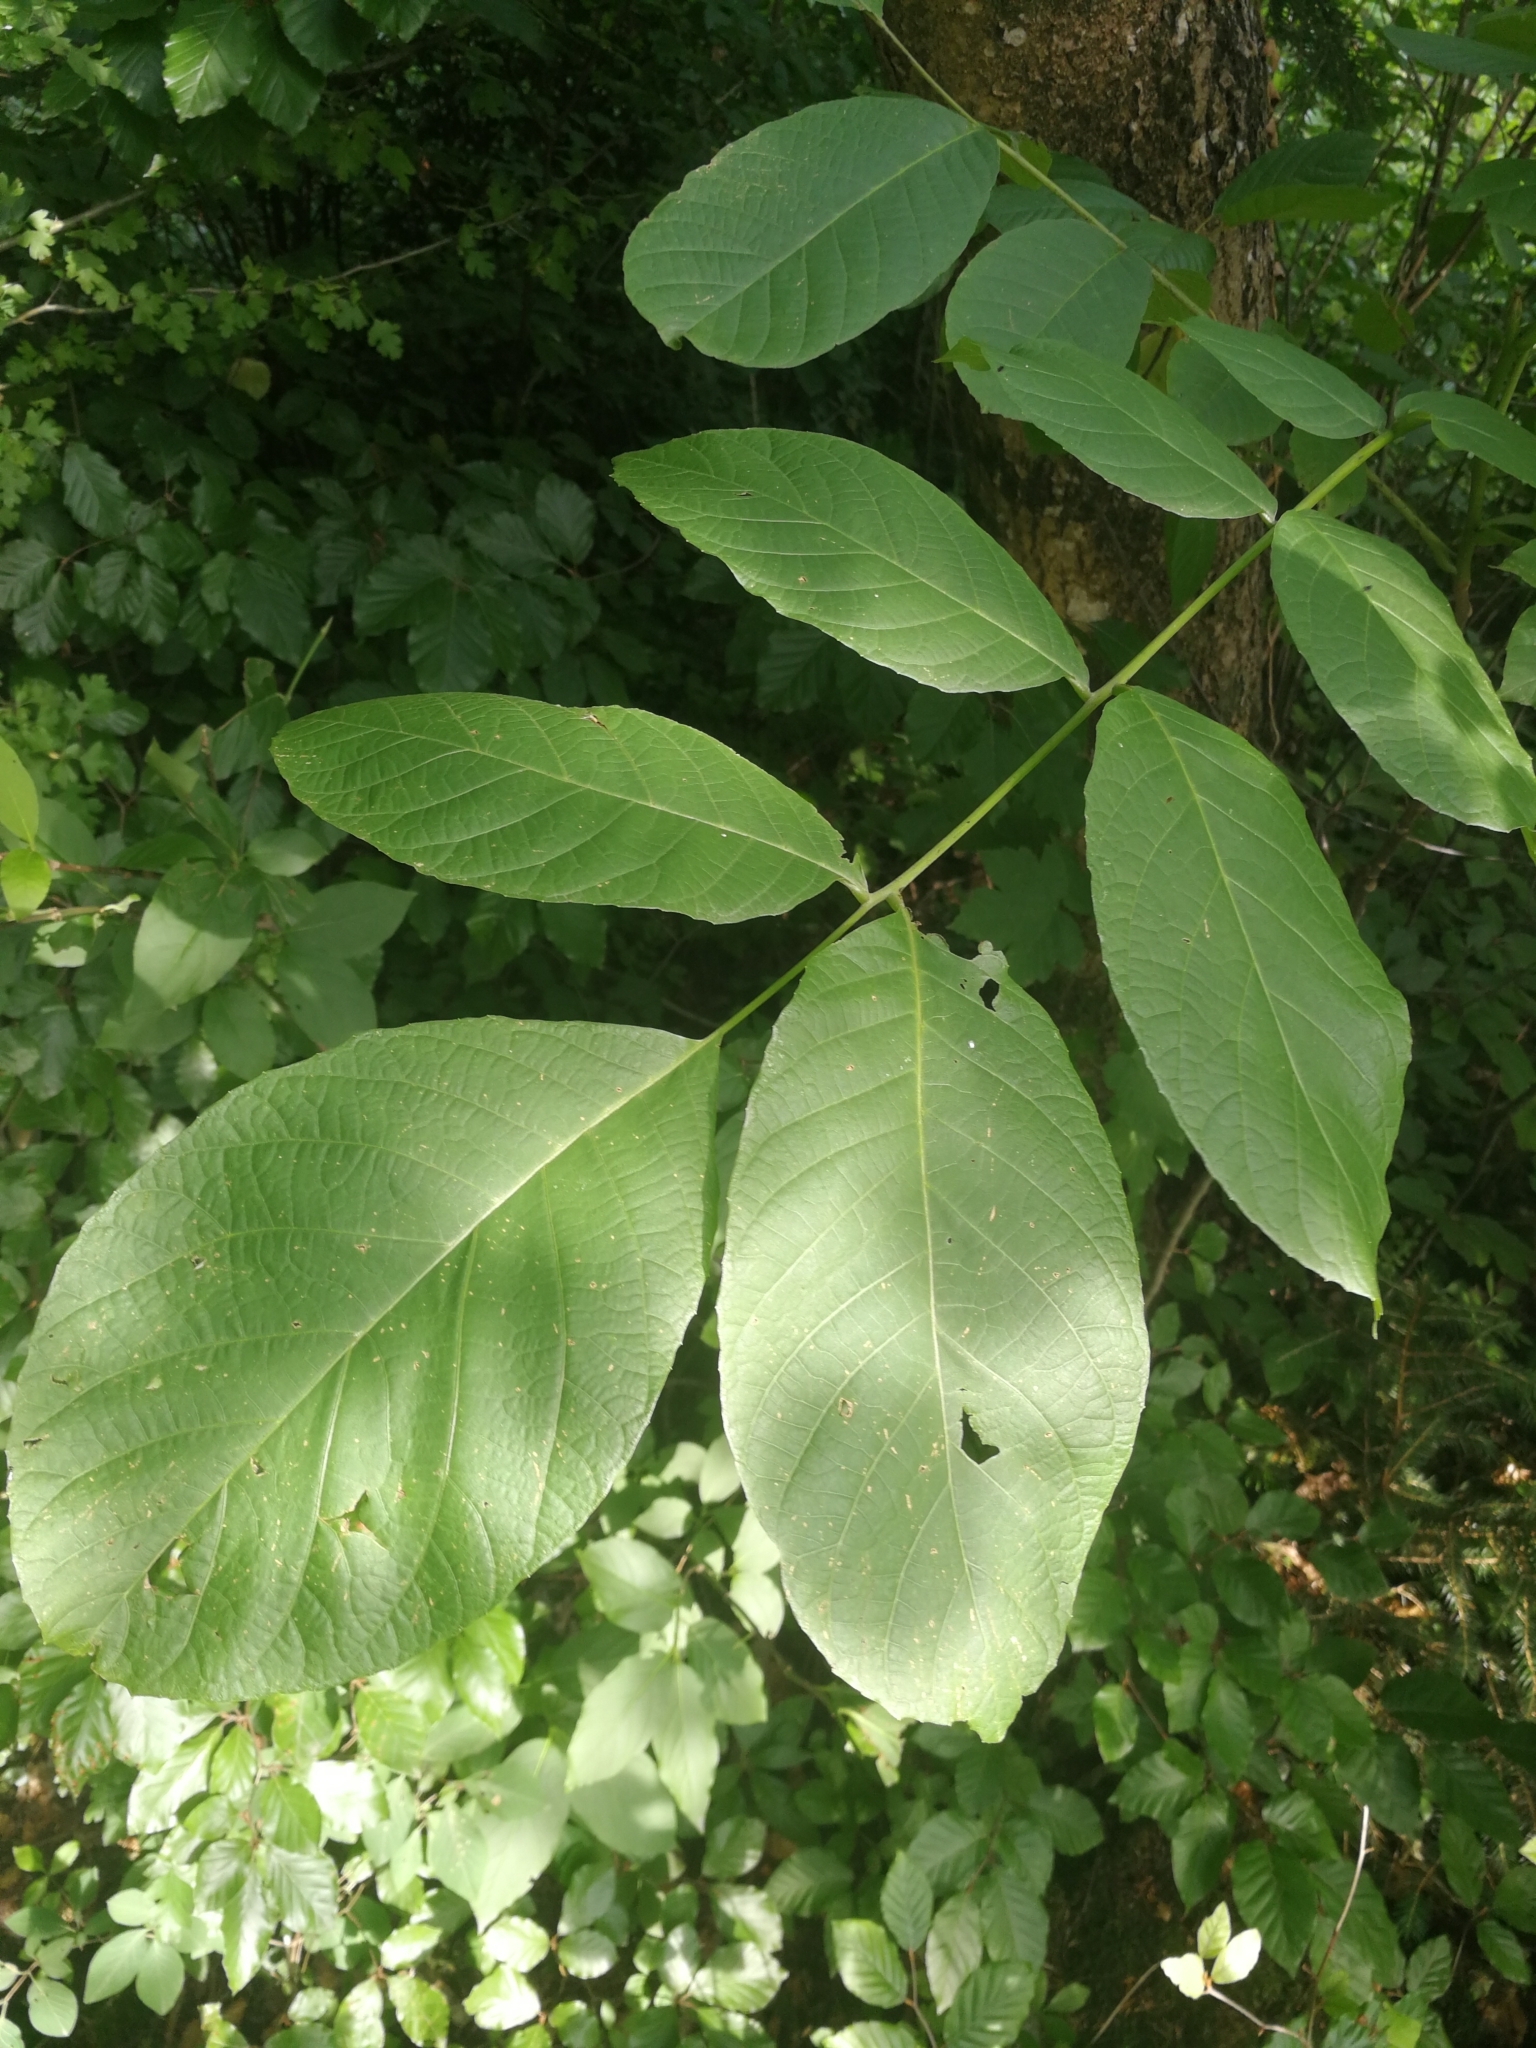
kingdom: Plantae
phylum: Tracheophyta
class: Magnoliopsida
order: Fagales
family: Juglandaceae
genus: Juglans
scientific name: Juglans regia
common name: Walnut
